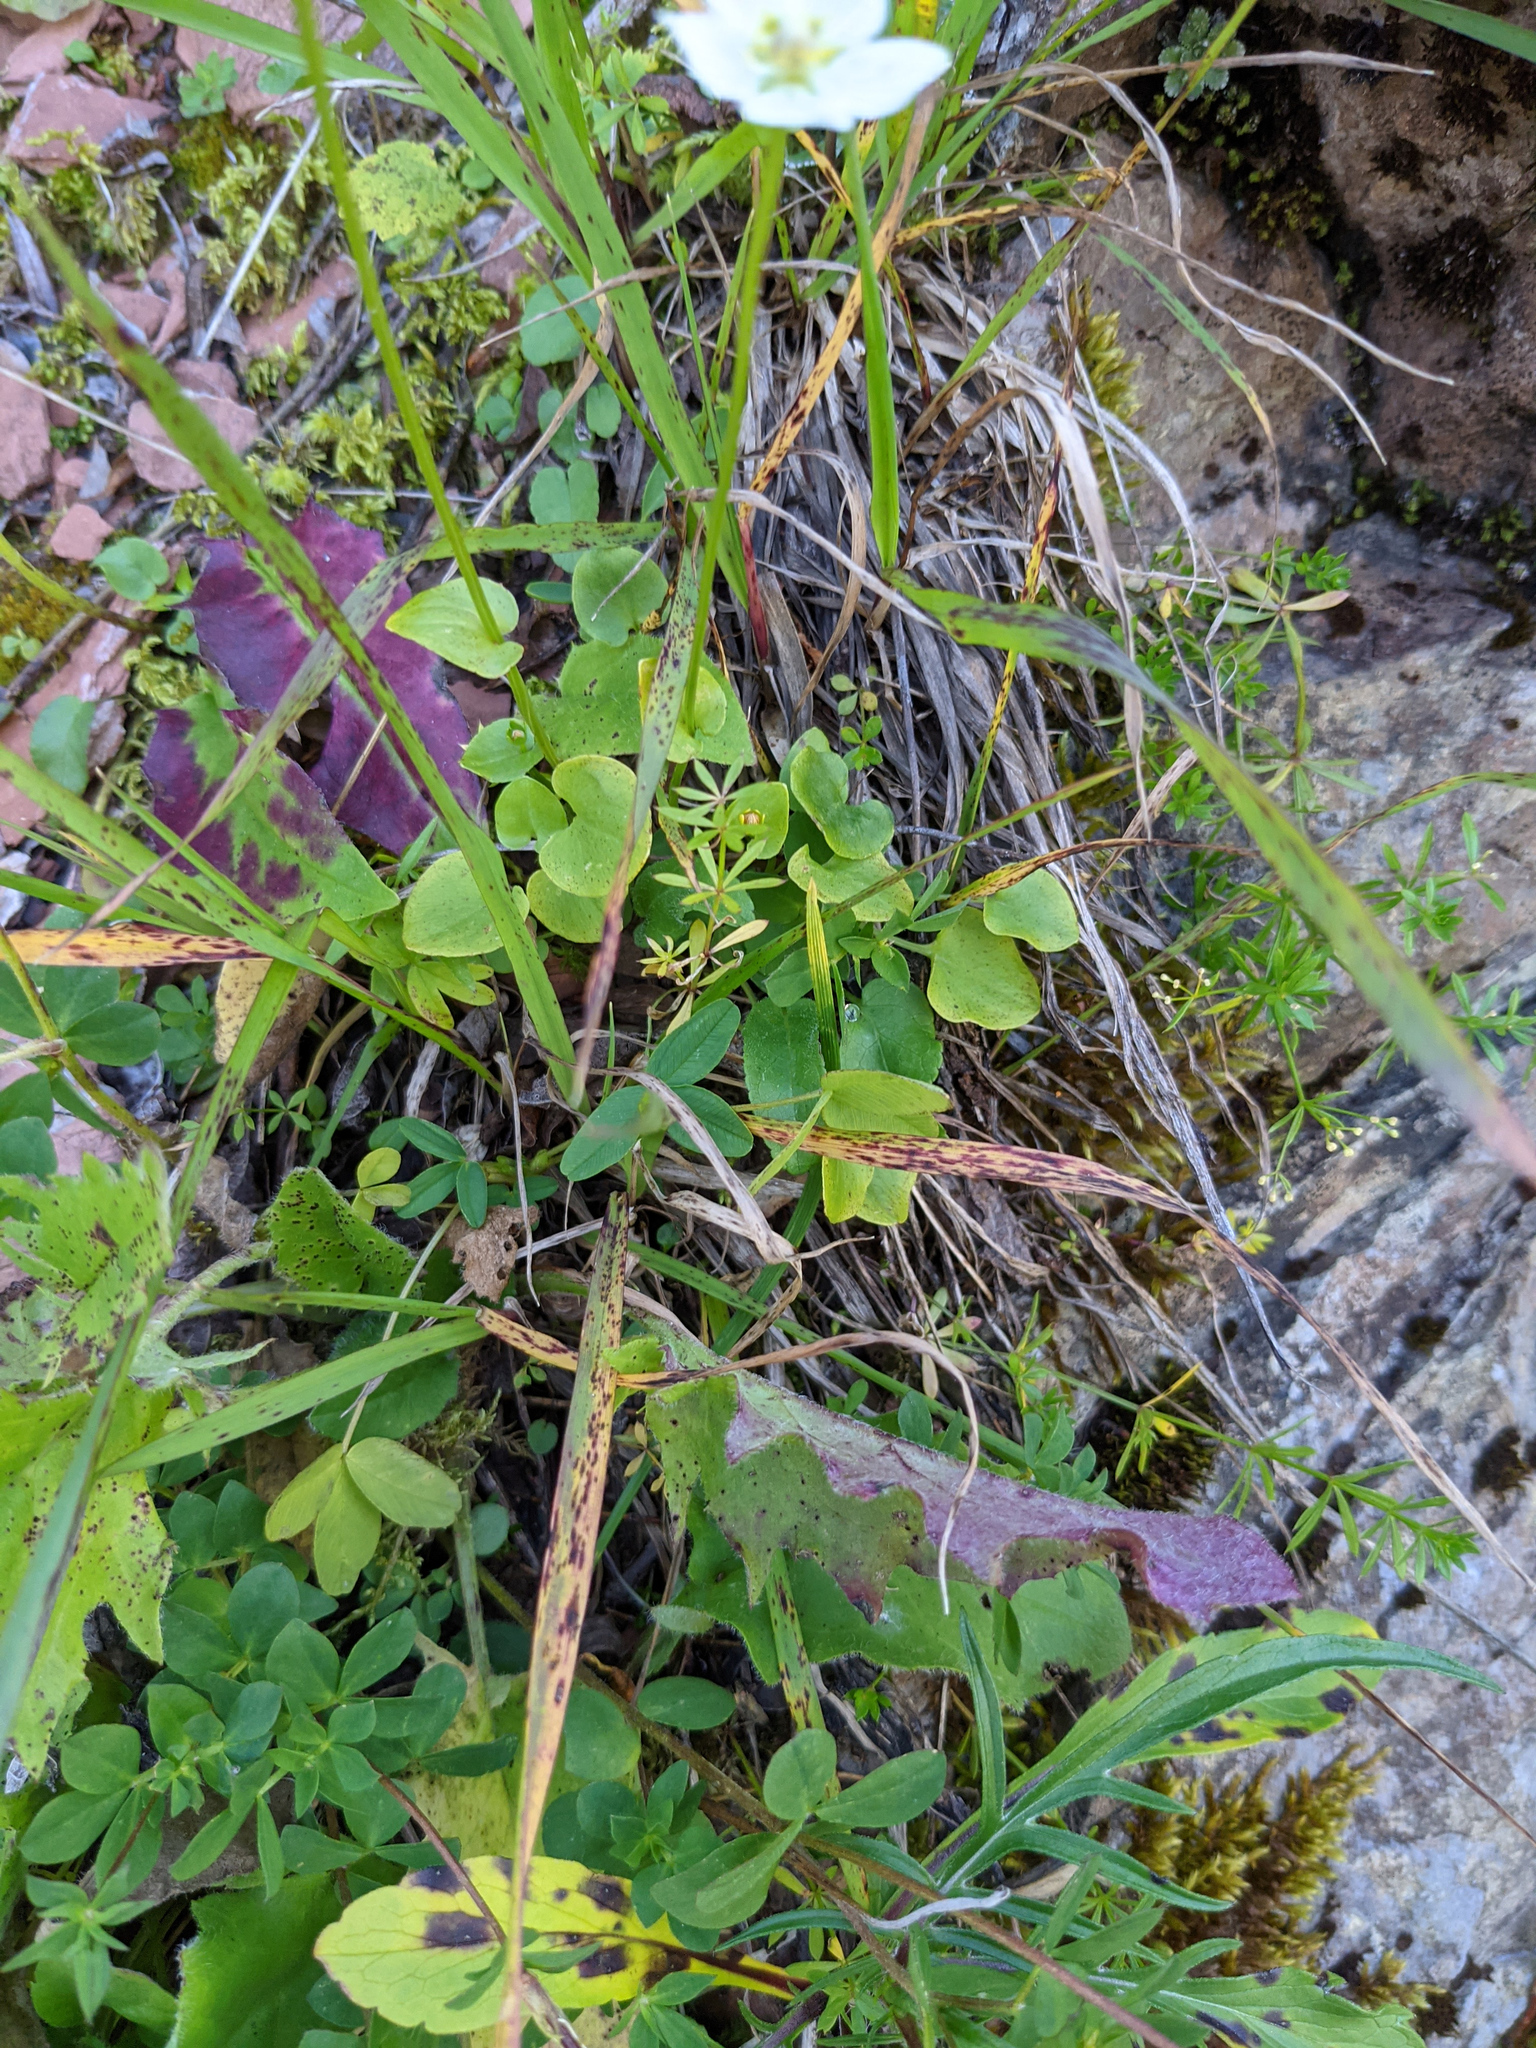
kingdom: Plantae
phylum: Tracheophyta
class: Magnoliopsida
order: Celastrales
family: Parnassiaceae
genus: Parnassia
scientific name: Parnassia palustris
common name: Grass-of-parnassus
